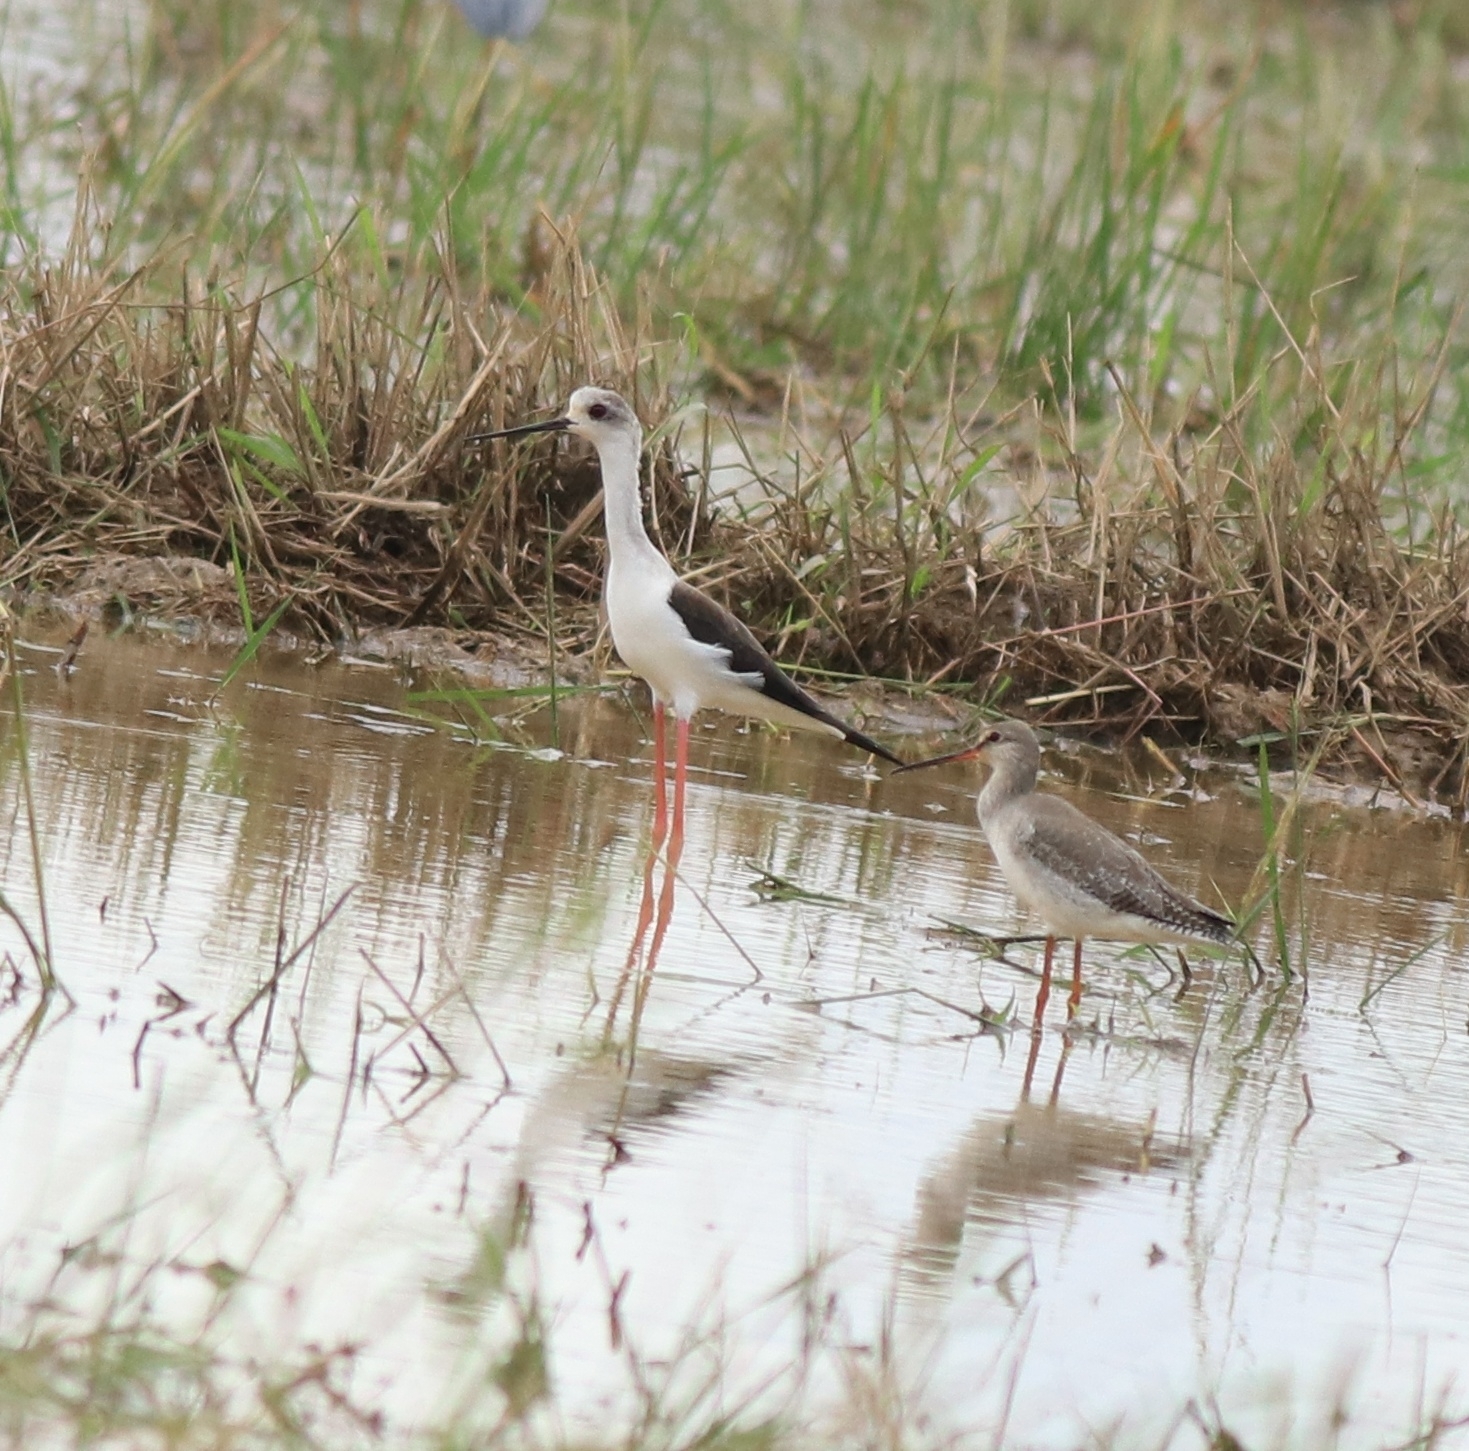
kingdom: Animalia
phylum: Chordata
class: Aves
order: Charadriiformes
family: Scolopacidae
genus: Tringa
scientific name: Tringa erythropus
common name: Spotted redshank
